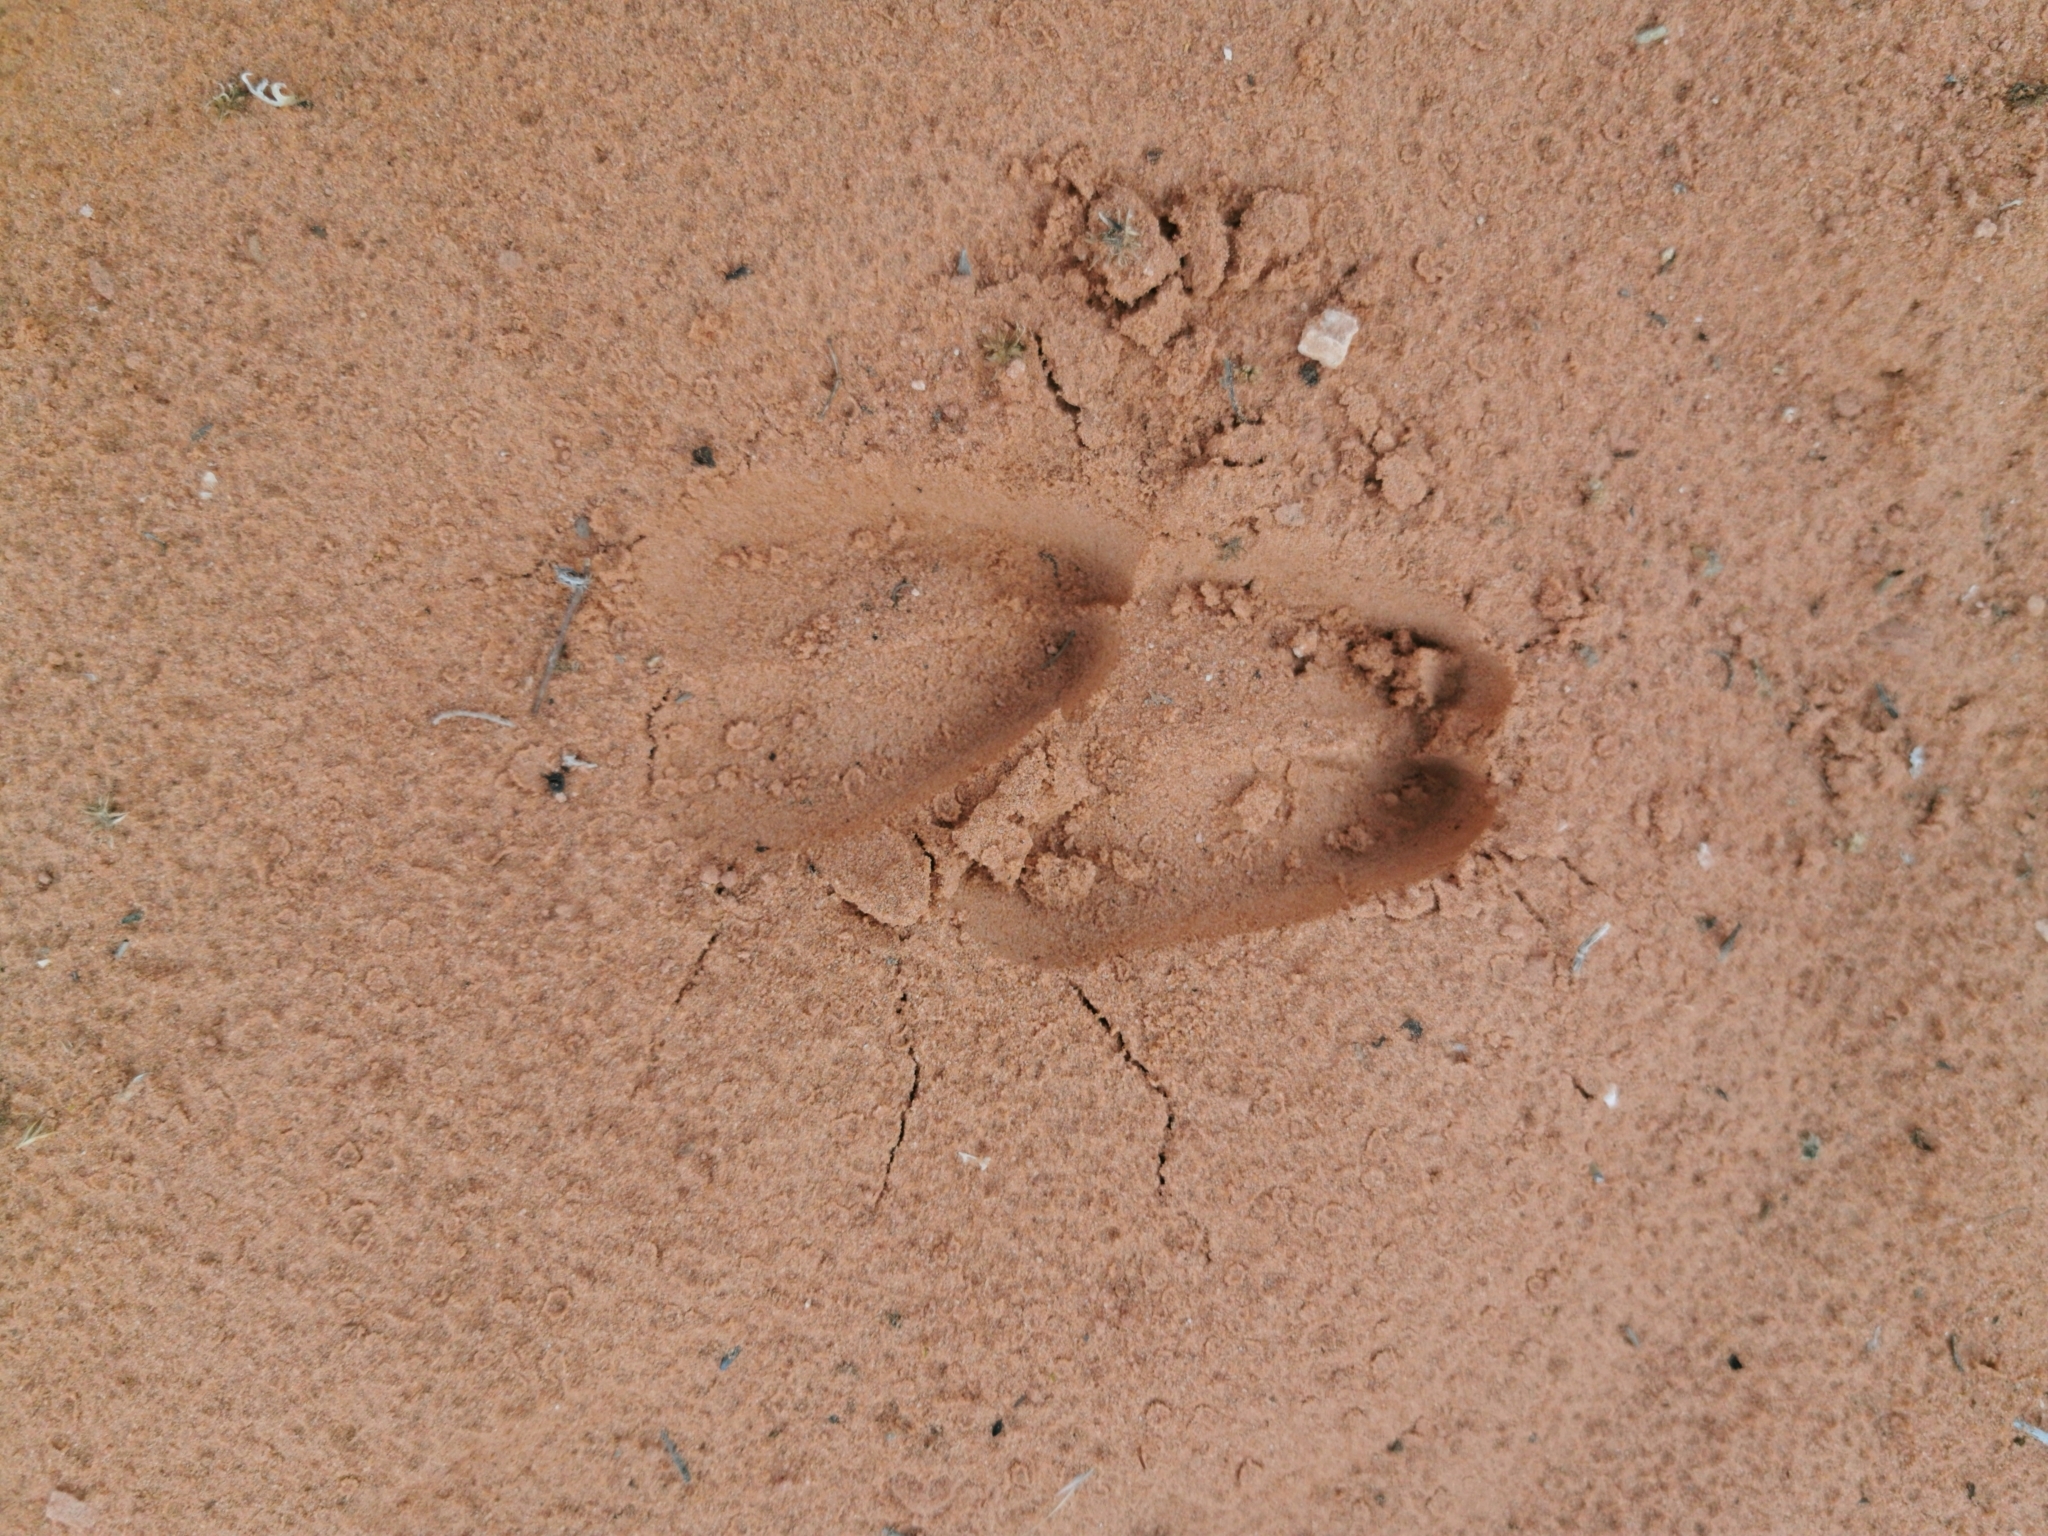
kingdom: Animalia
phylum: Chordata
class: Mammalia
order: Artiodactyla
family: Bovidae
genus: Ovis
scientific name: Ovis canadensis
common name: Bighorn sheep
